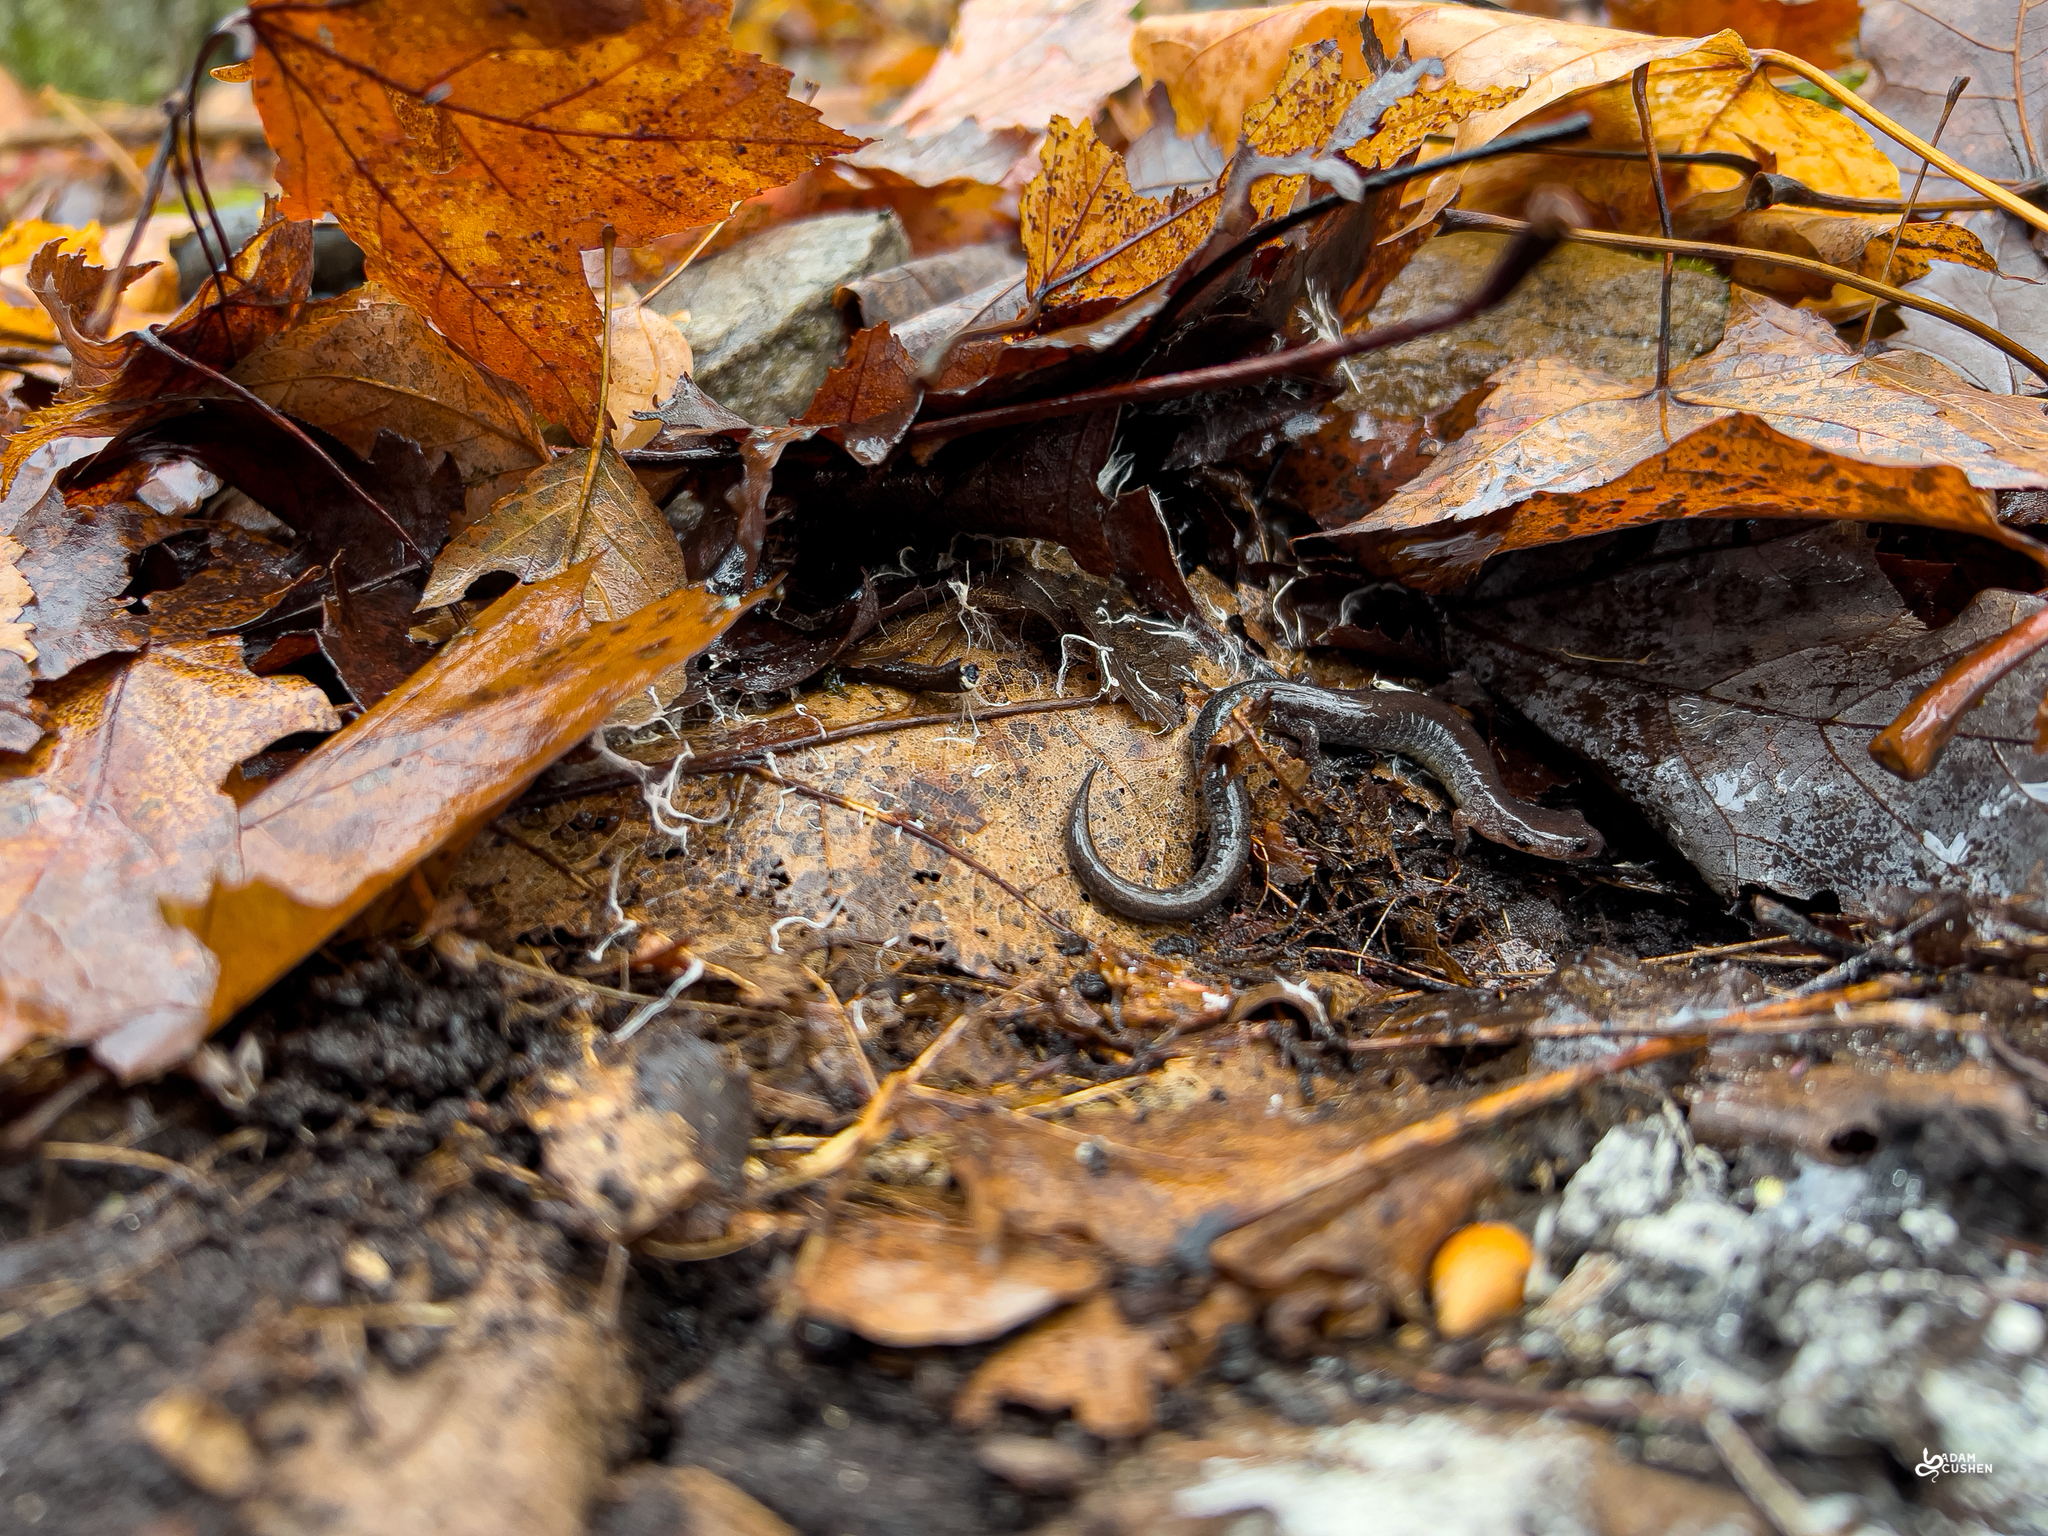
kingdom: Animalia
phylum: Chordata
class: Amphibia
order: Caudata
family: Plethodontidae
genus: Plethodon
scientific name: Plethodon cinereus
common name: Redback salamander
